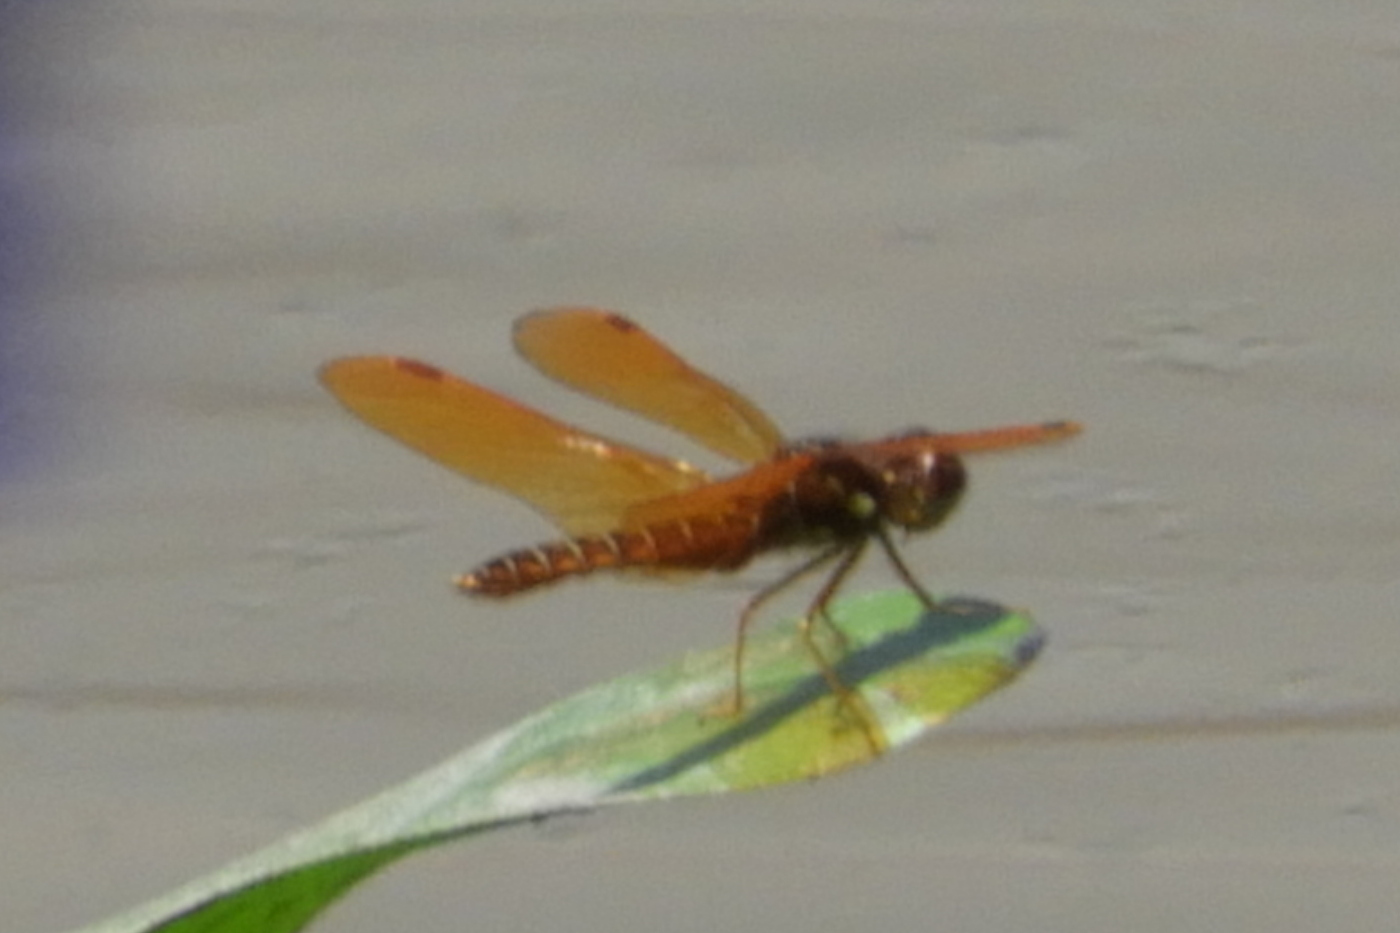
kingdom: Animalia
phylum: Arthropoda
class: Insecta
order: Odonata
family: Libellulidae
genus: Perithemis
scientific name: Perithemis tenera
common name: Eastern amberwing
